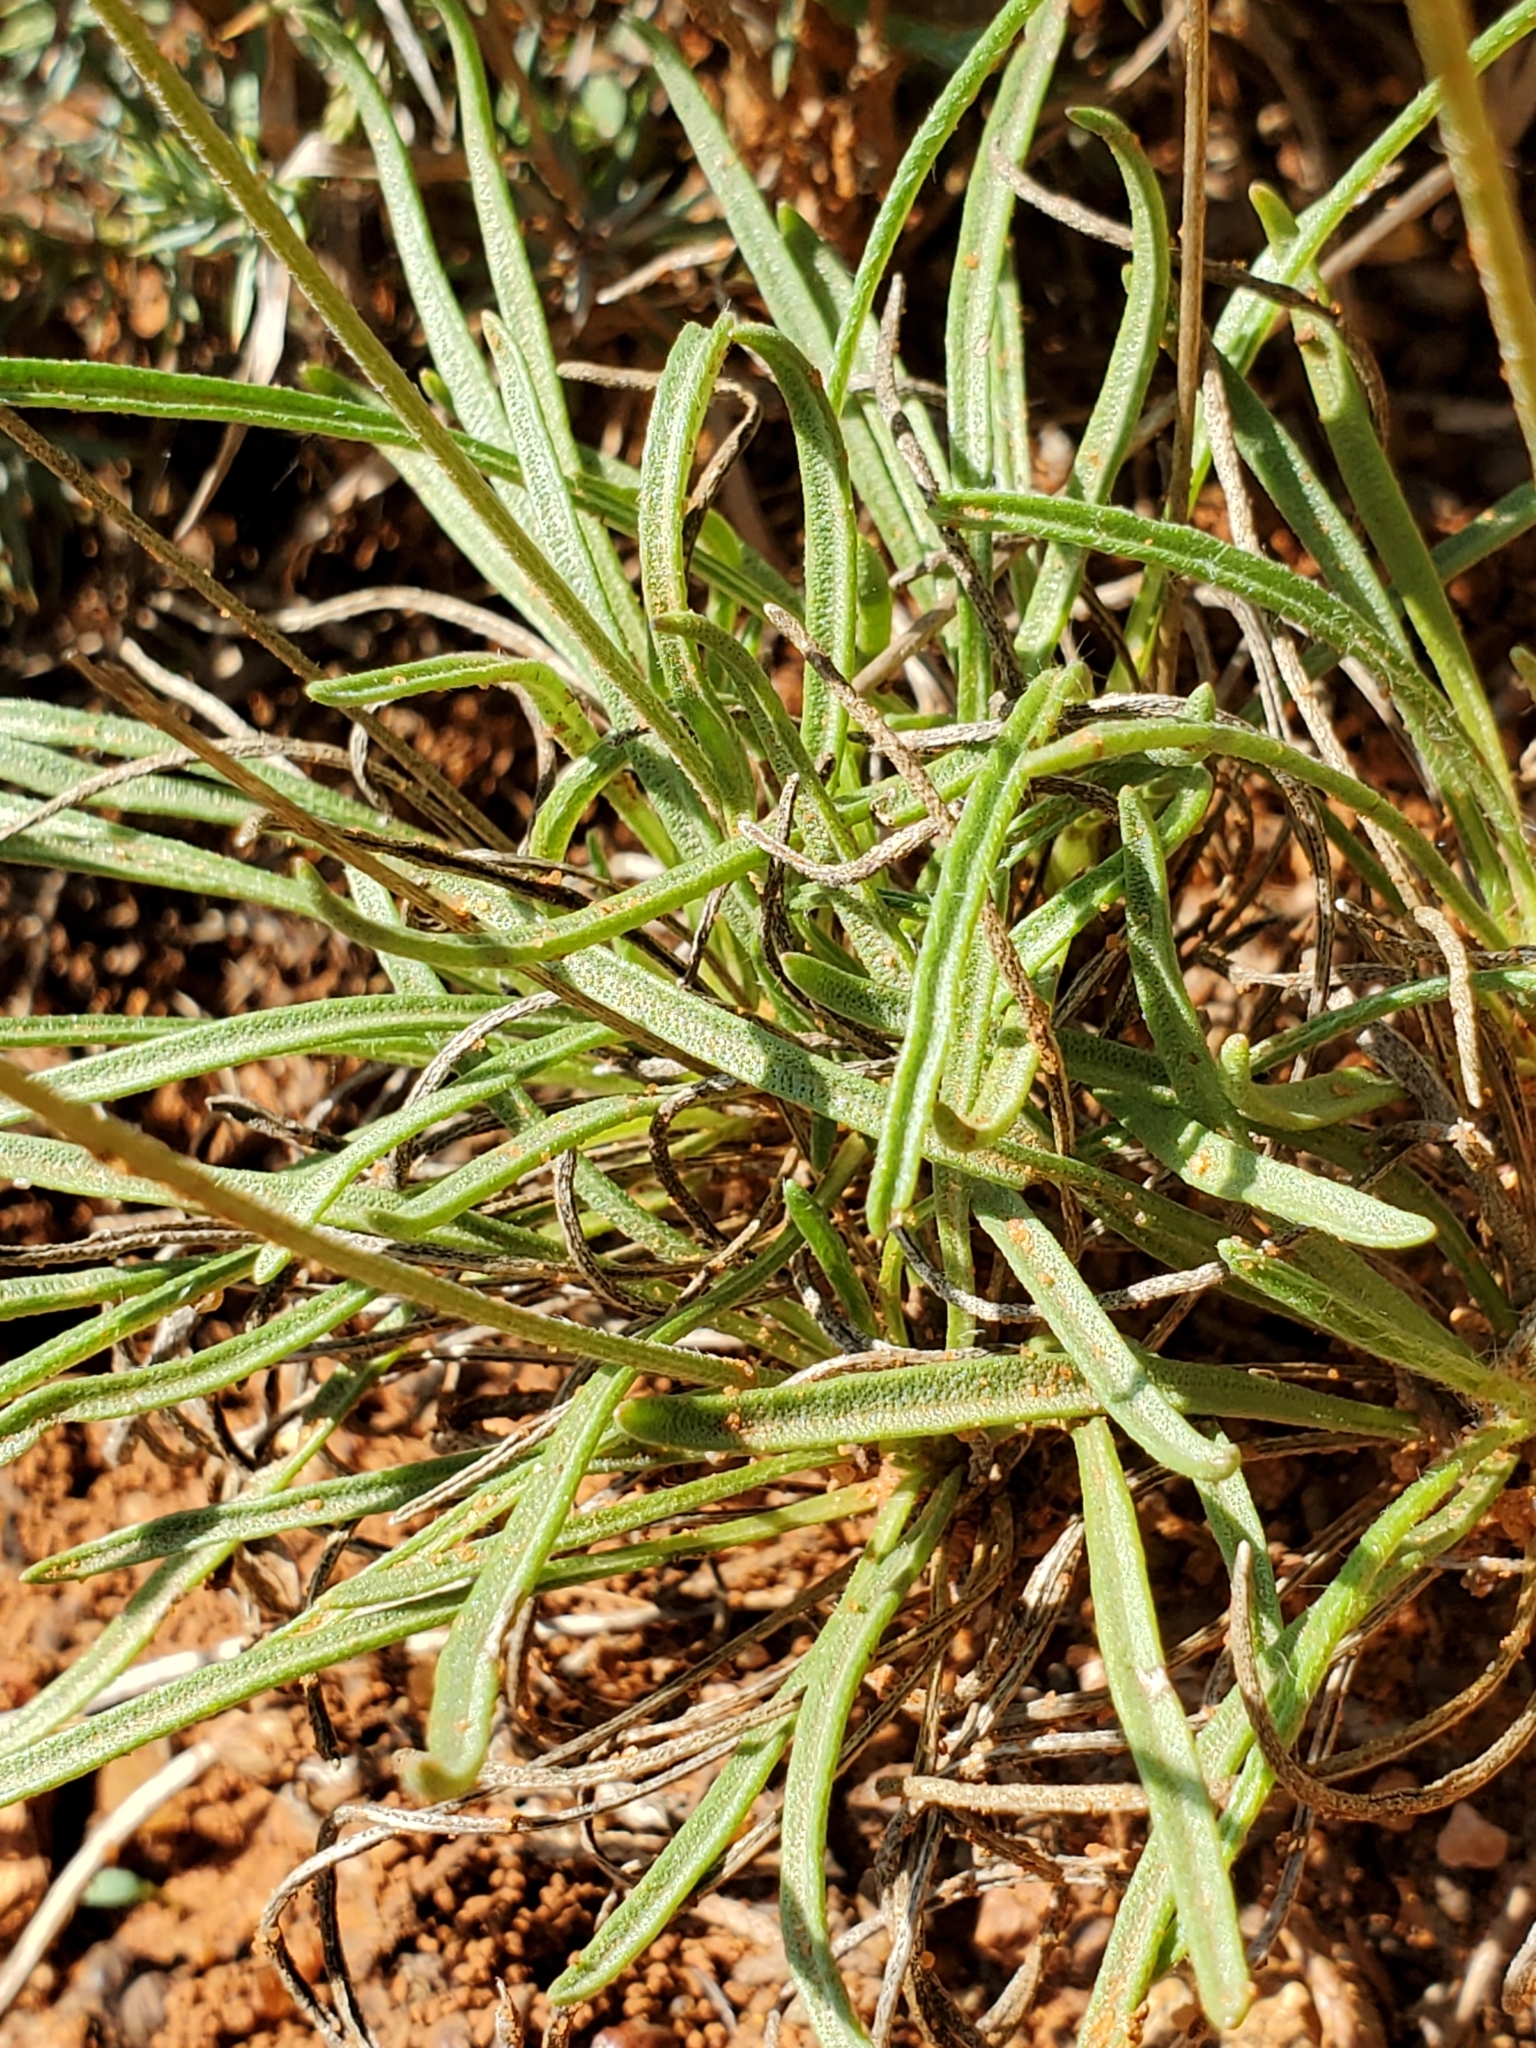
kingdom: Plantae
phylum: Tracheophyta
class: Magnoliopsida
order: Asterales
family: Asteraceae
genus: Tetraneuris
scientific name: Tetraneuris scaposa
